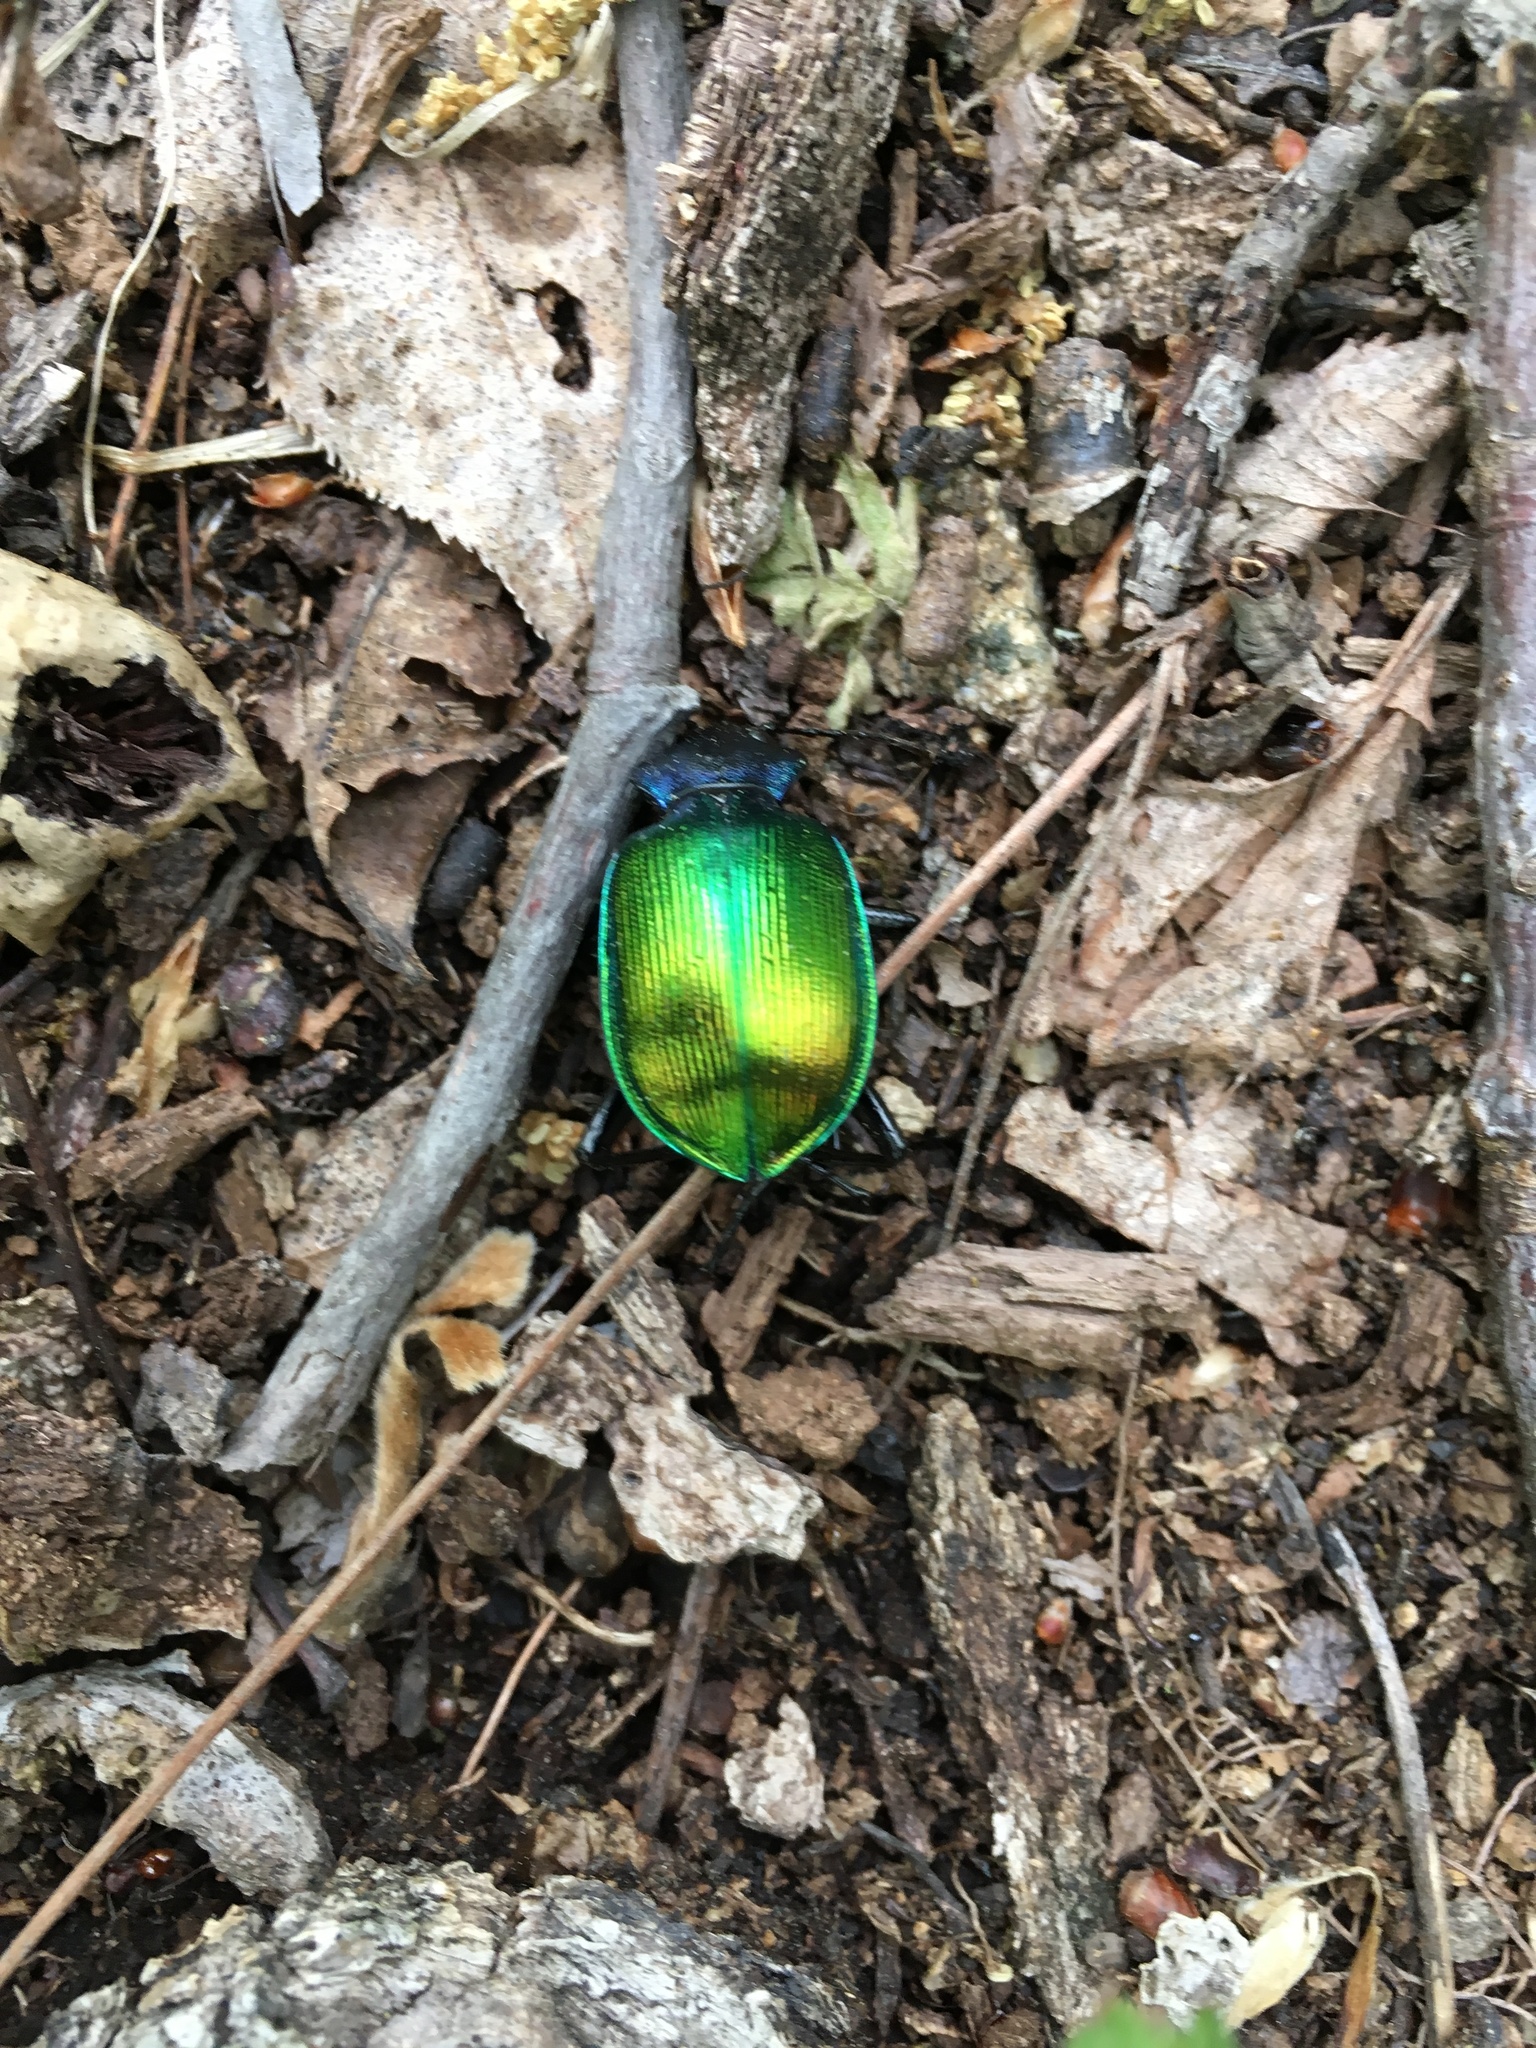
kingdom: Animalia
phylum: Arthropoda
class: Insecta
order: Coleoptera
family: Carabidae
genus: Calosoma
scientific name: Calosoma sycophanta
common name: Forest caterpillar hunter
